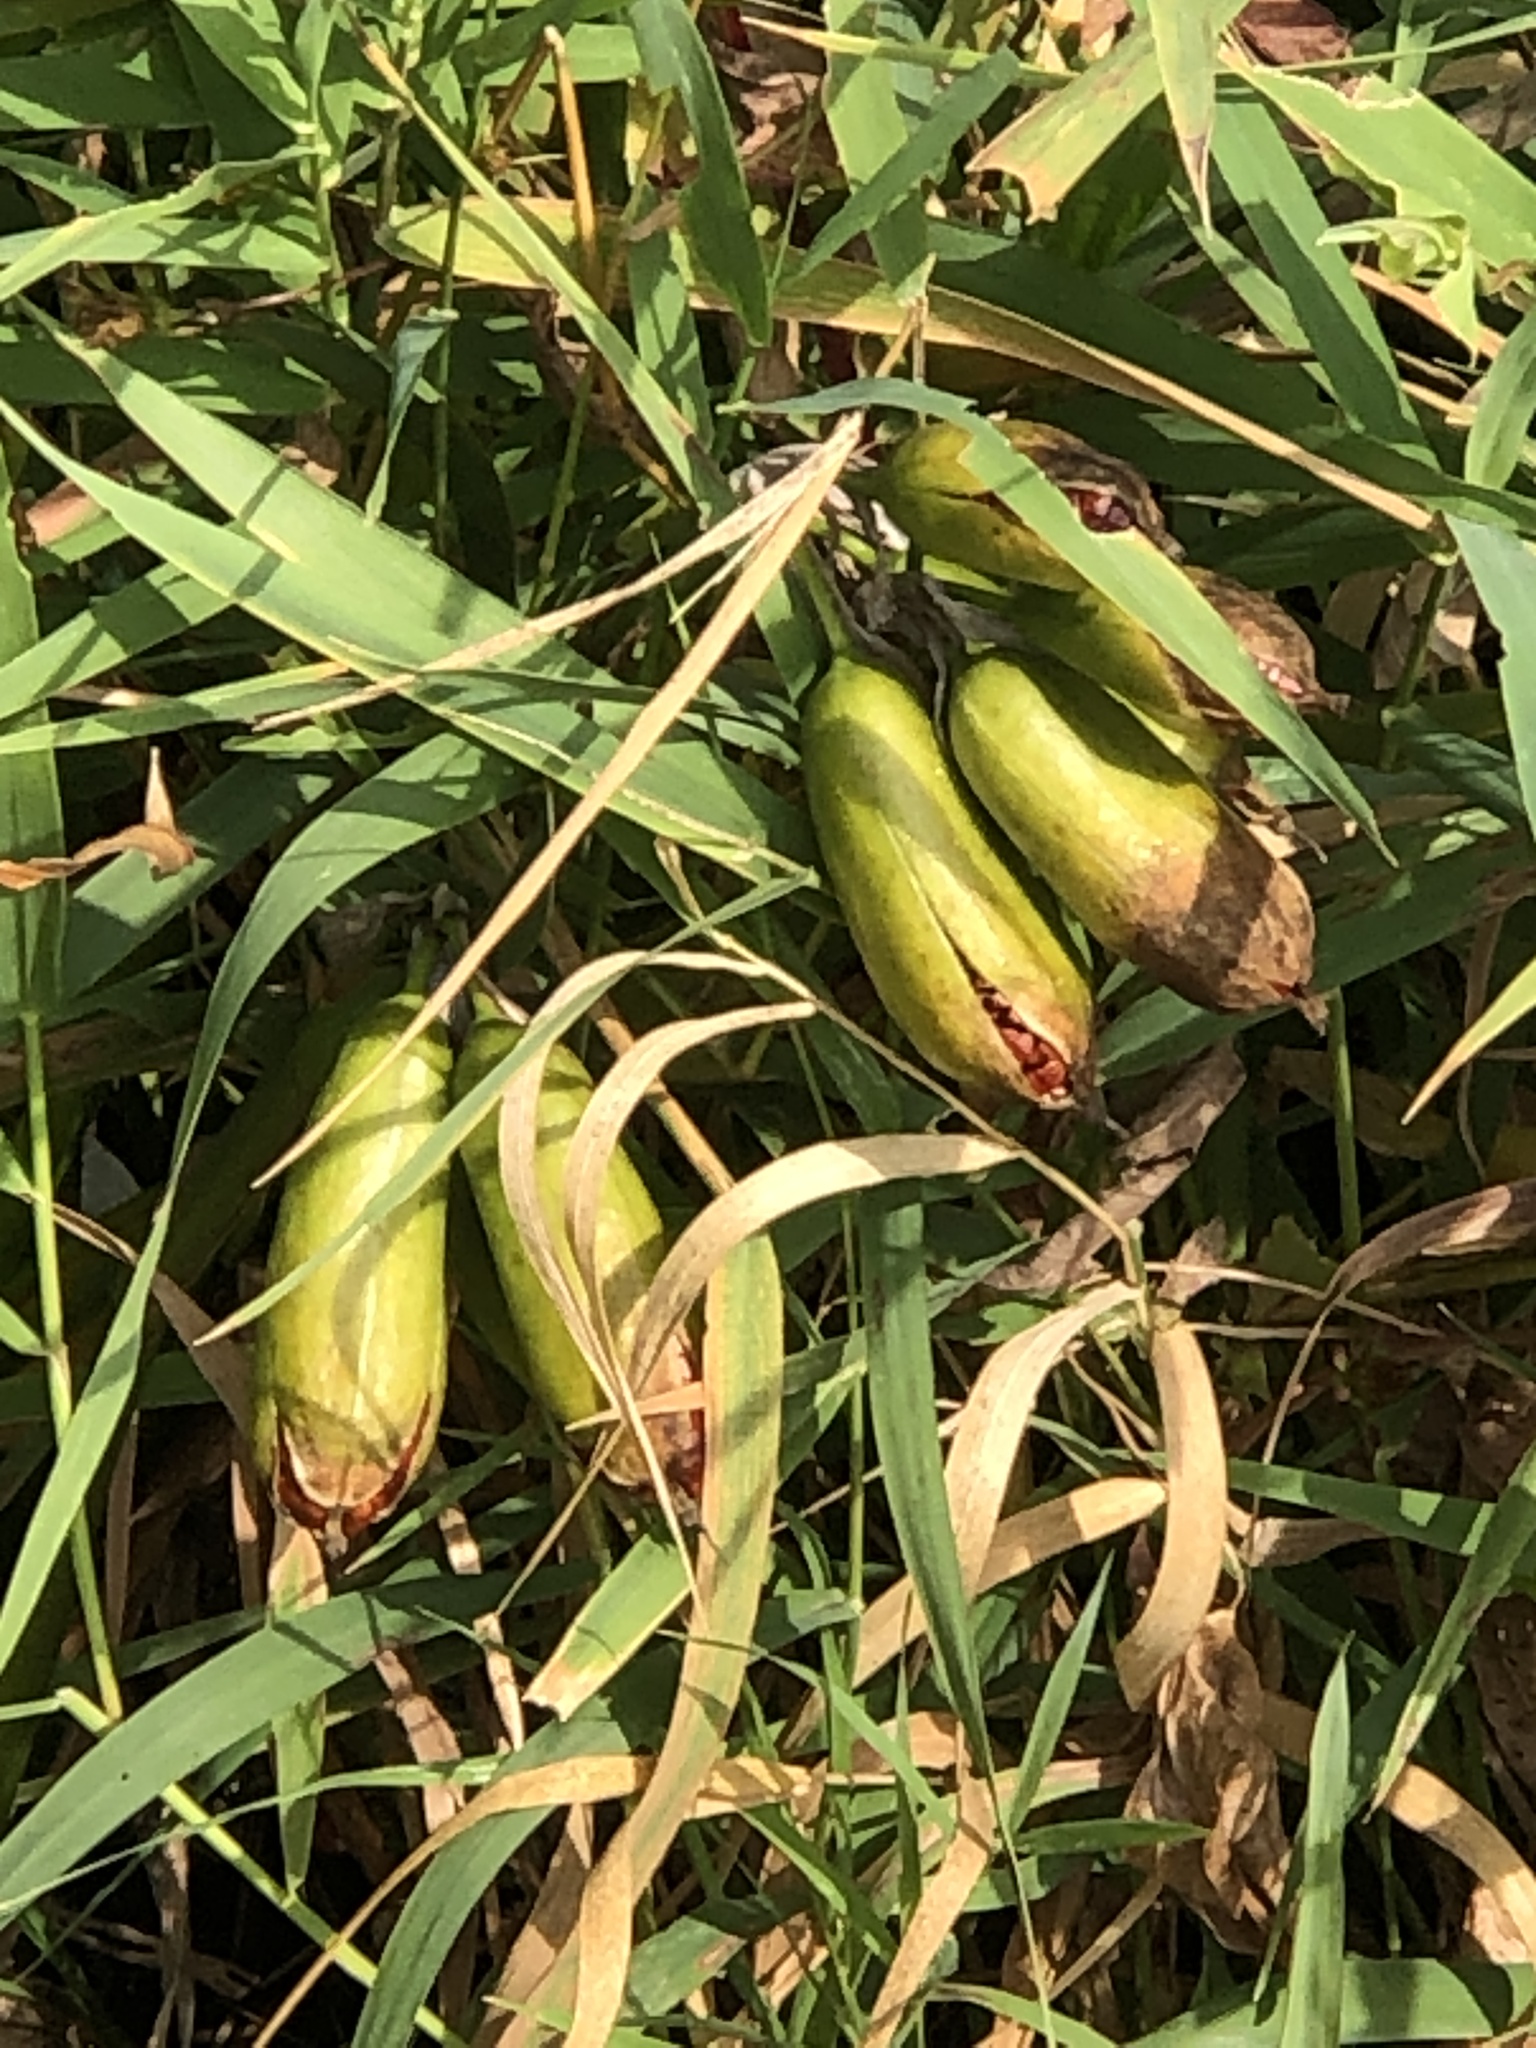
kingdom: Plantae
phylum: Tracheophyta
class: Liliopsida
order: Asparagales
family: Iridaceae
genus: Iris
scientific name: Iris pseudacorus
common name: Yellow flag
